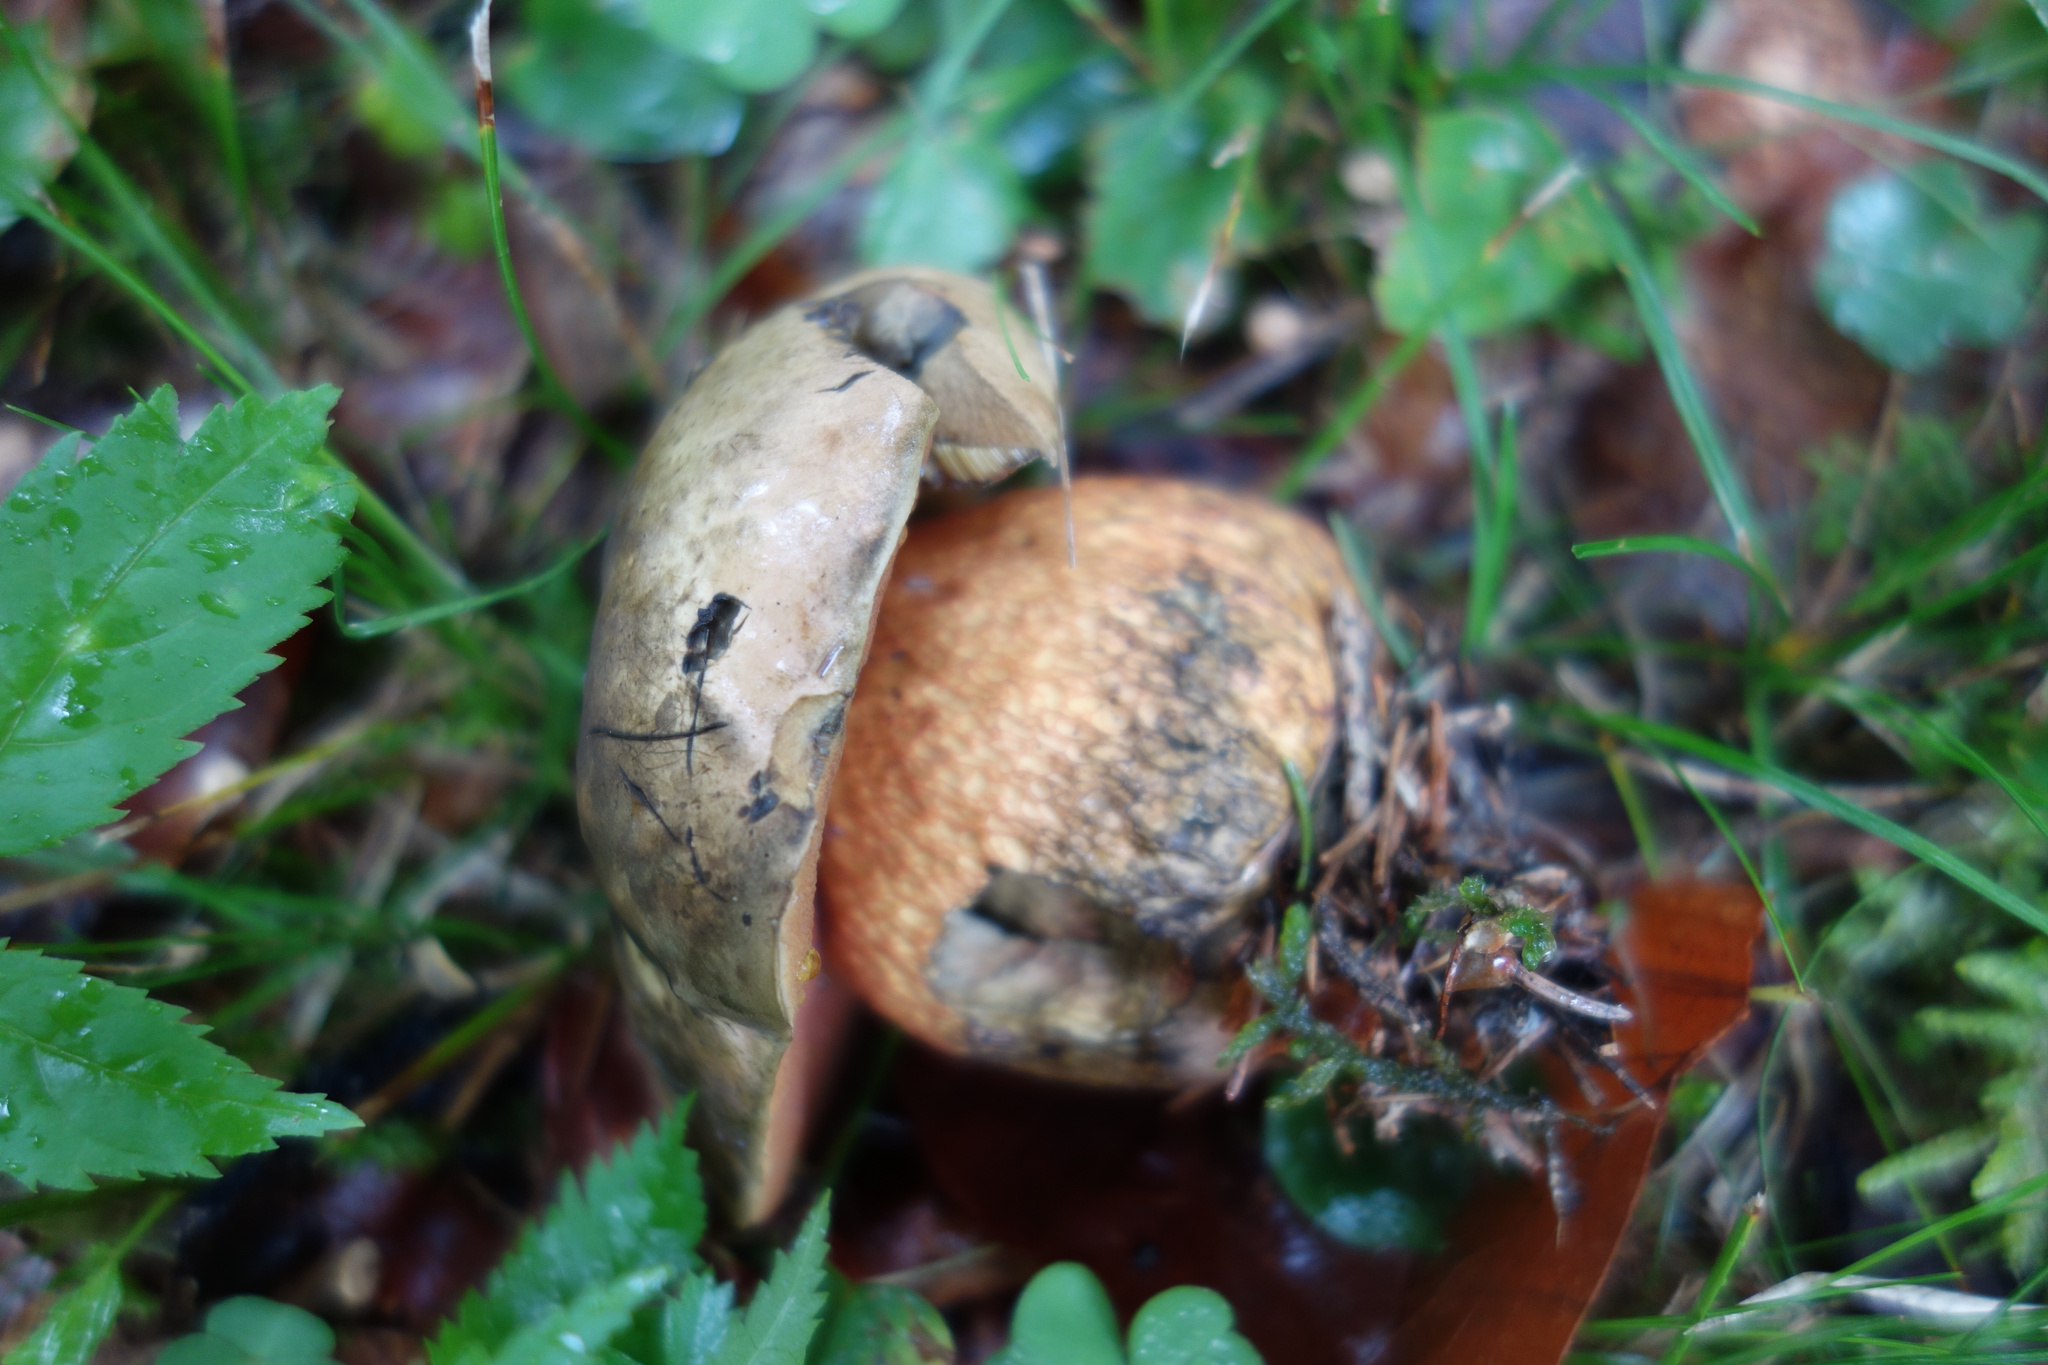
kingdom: Fungi
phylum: Basidiomycota
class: Agaricomycetes
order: Boletales
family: Boletaceae
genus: Suillellus
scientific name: Suillellus luridus
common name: Lurid bolete
